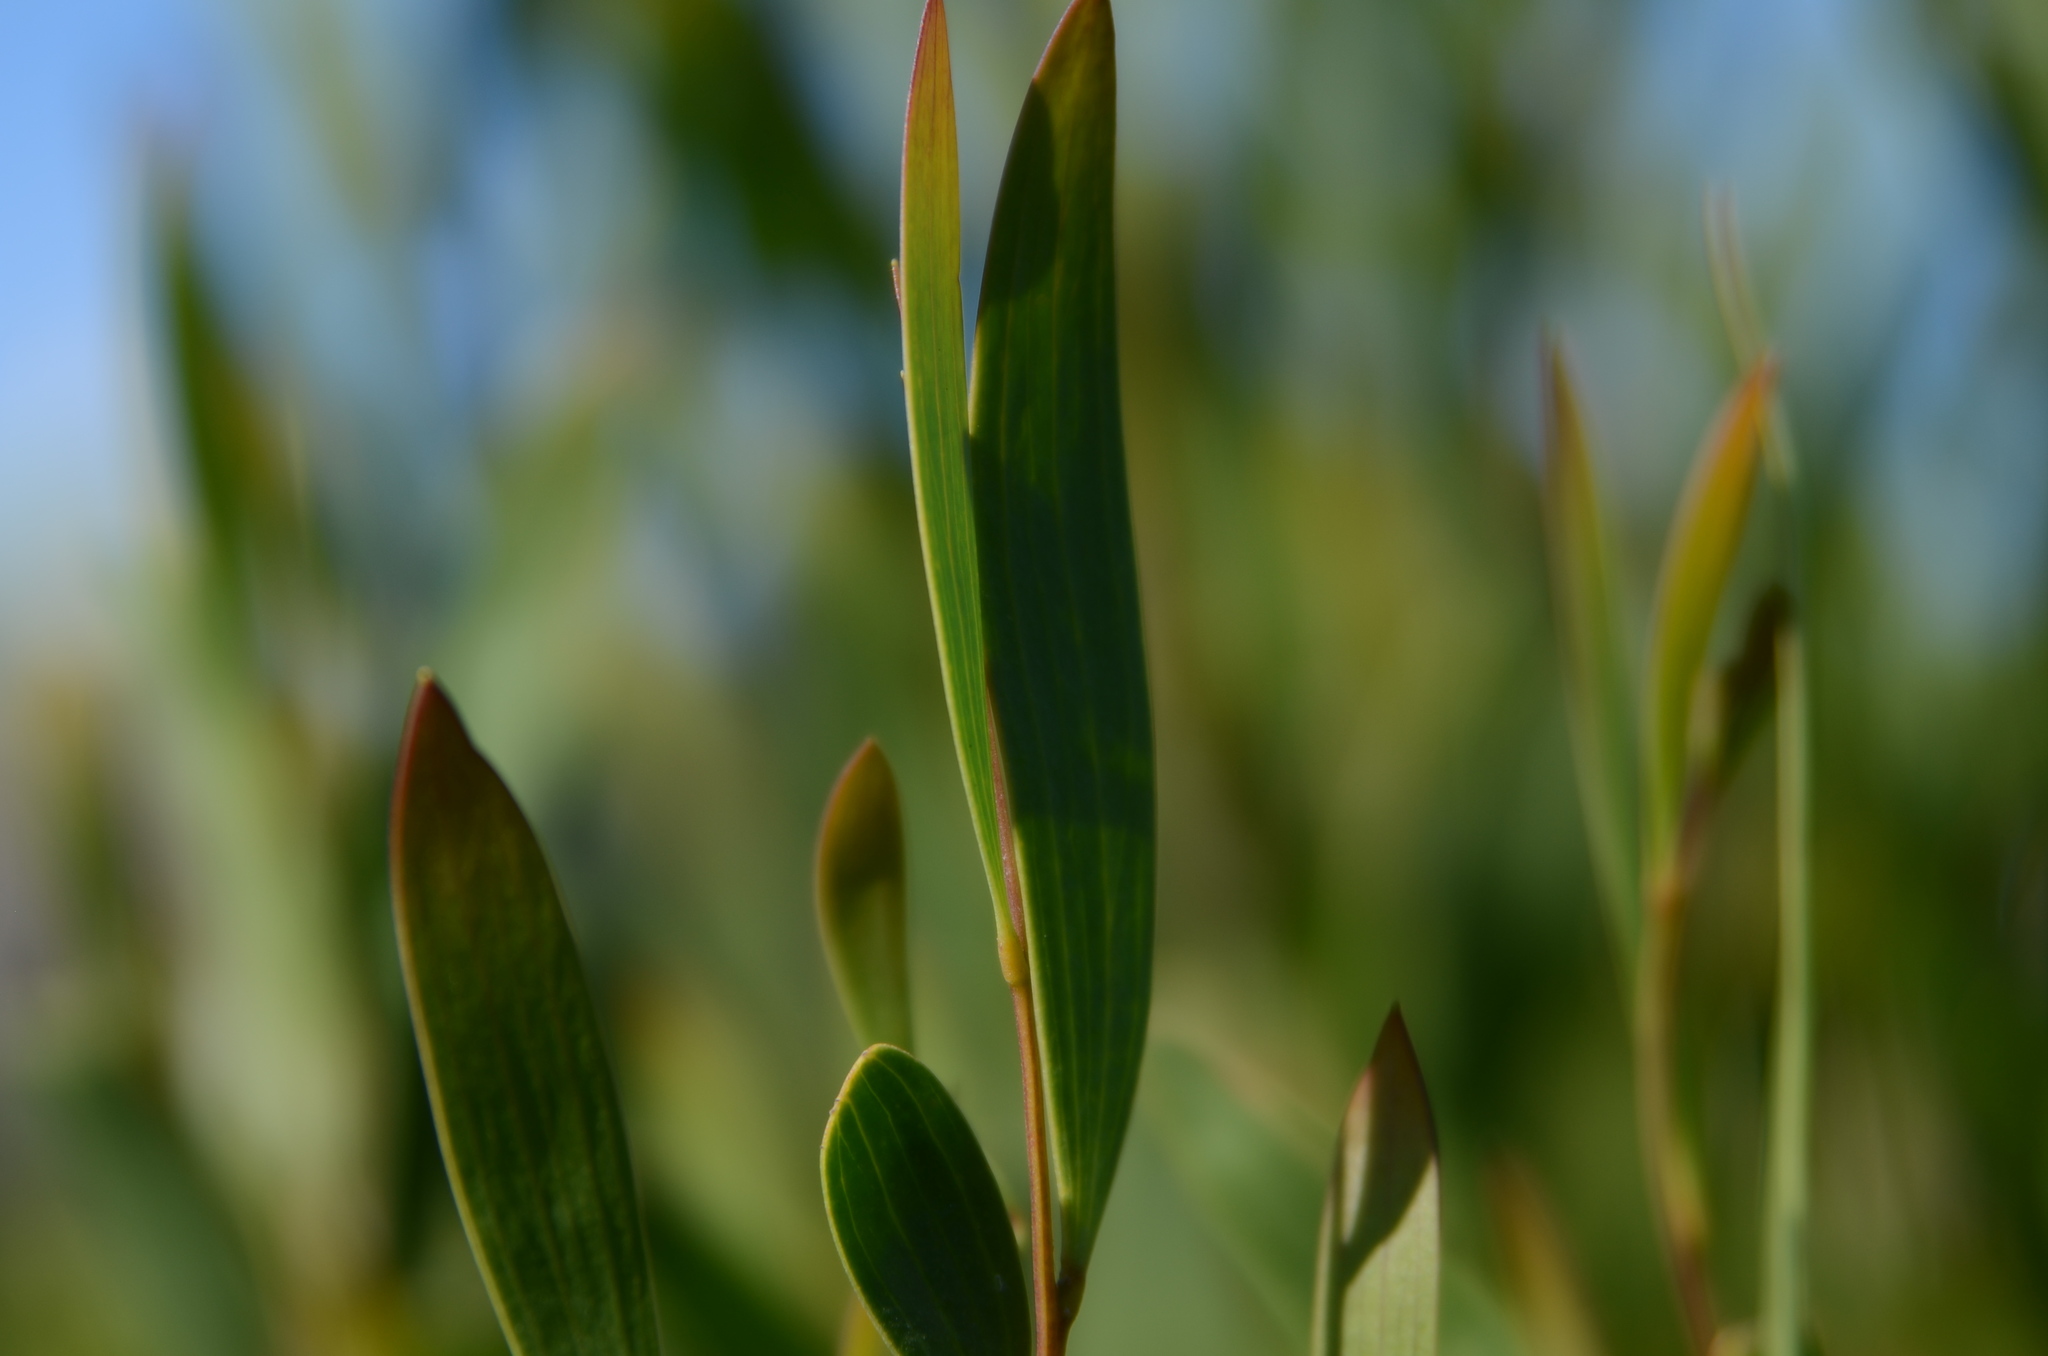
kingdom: Plantae
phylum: Tracheophyta
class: Magnoliopsida
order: Fabales
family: Fabaceae
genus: Acacia
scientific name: Acacia cyclops
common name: Coastal wattle
